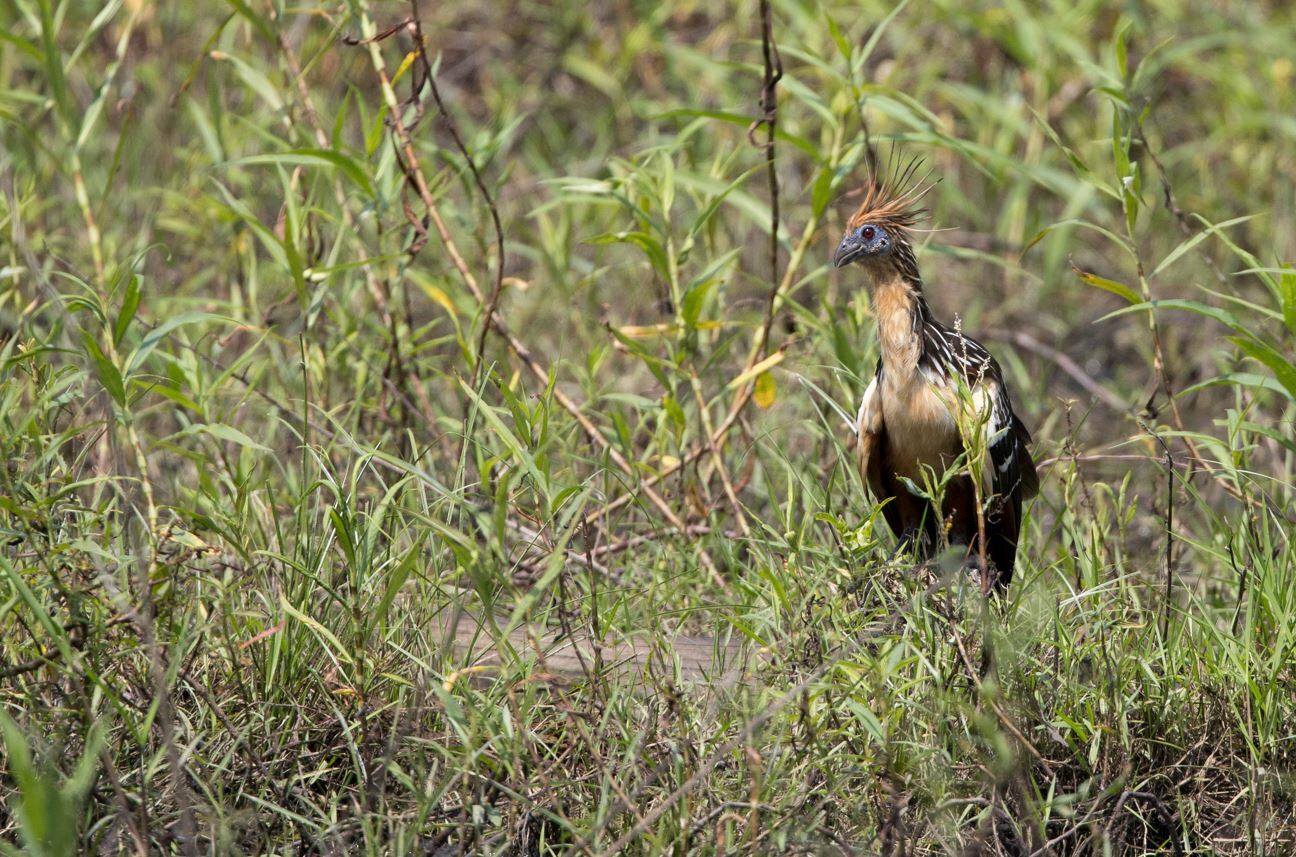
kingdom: Animalia
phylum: Chordata
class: Aves
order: Opisthocomiformes
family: Opisthocomidae
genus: Opisthocomus
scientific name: Opisthocomus hoazin
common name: Hoatzin
